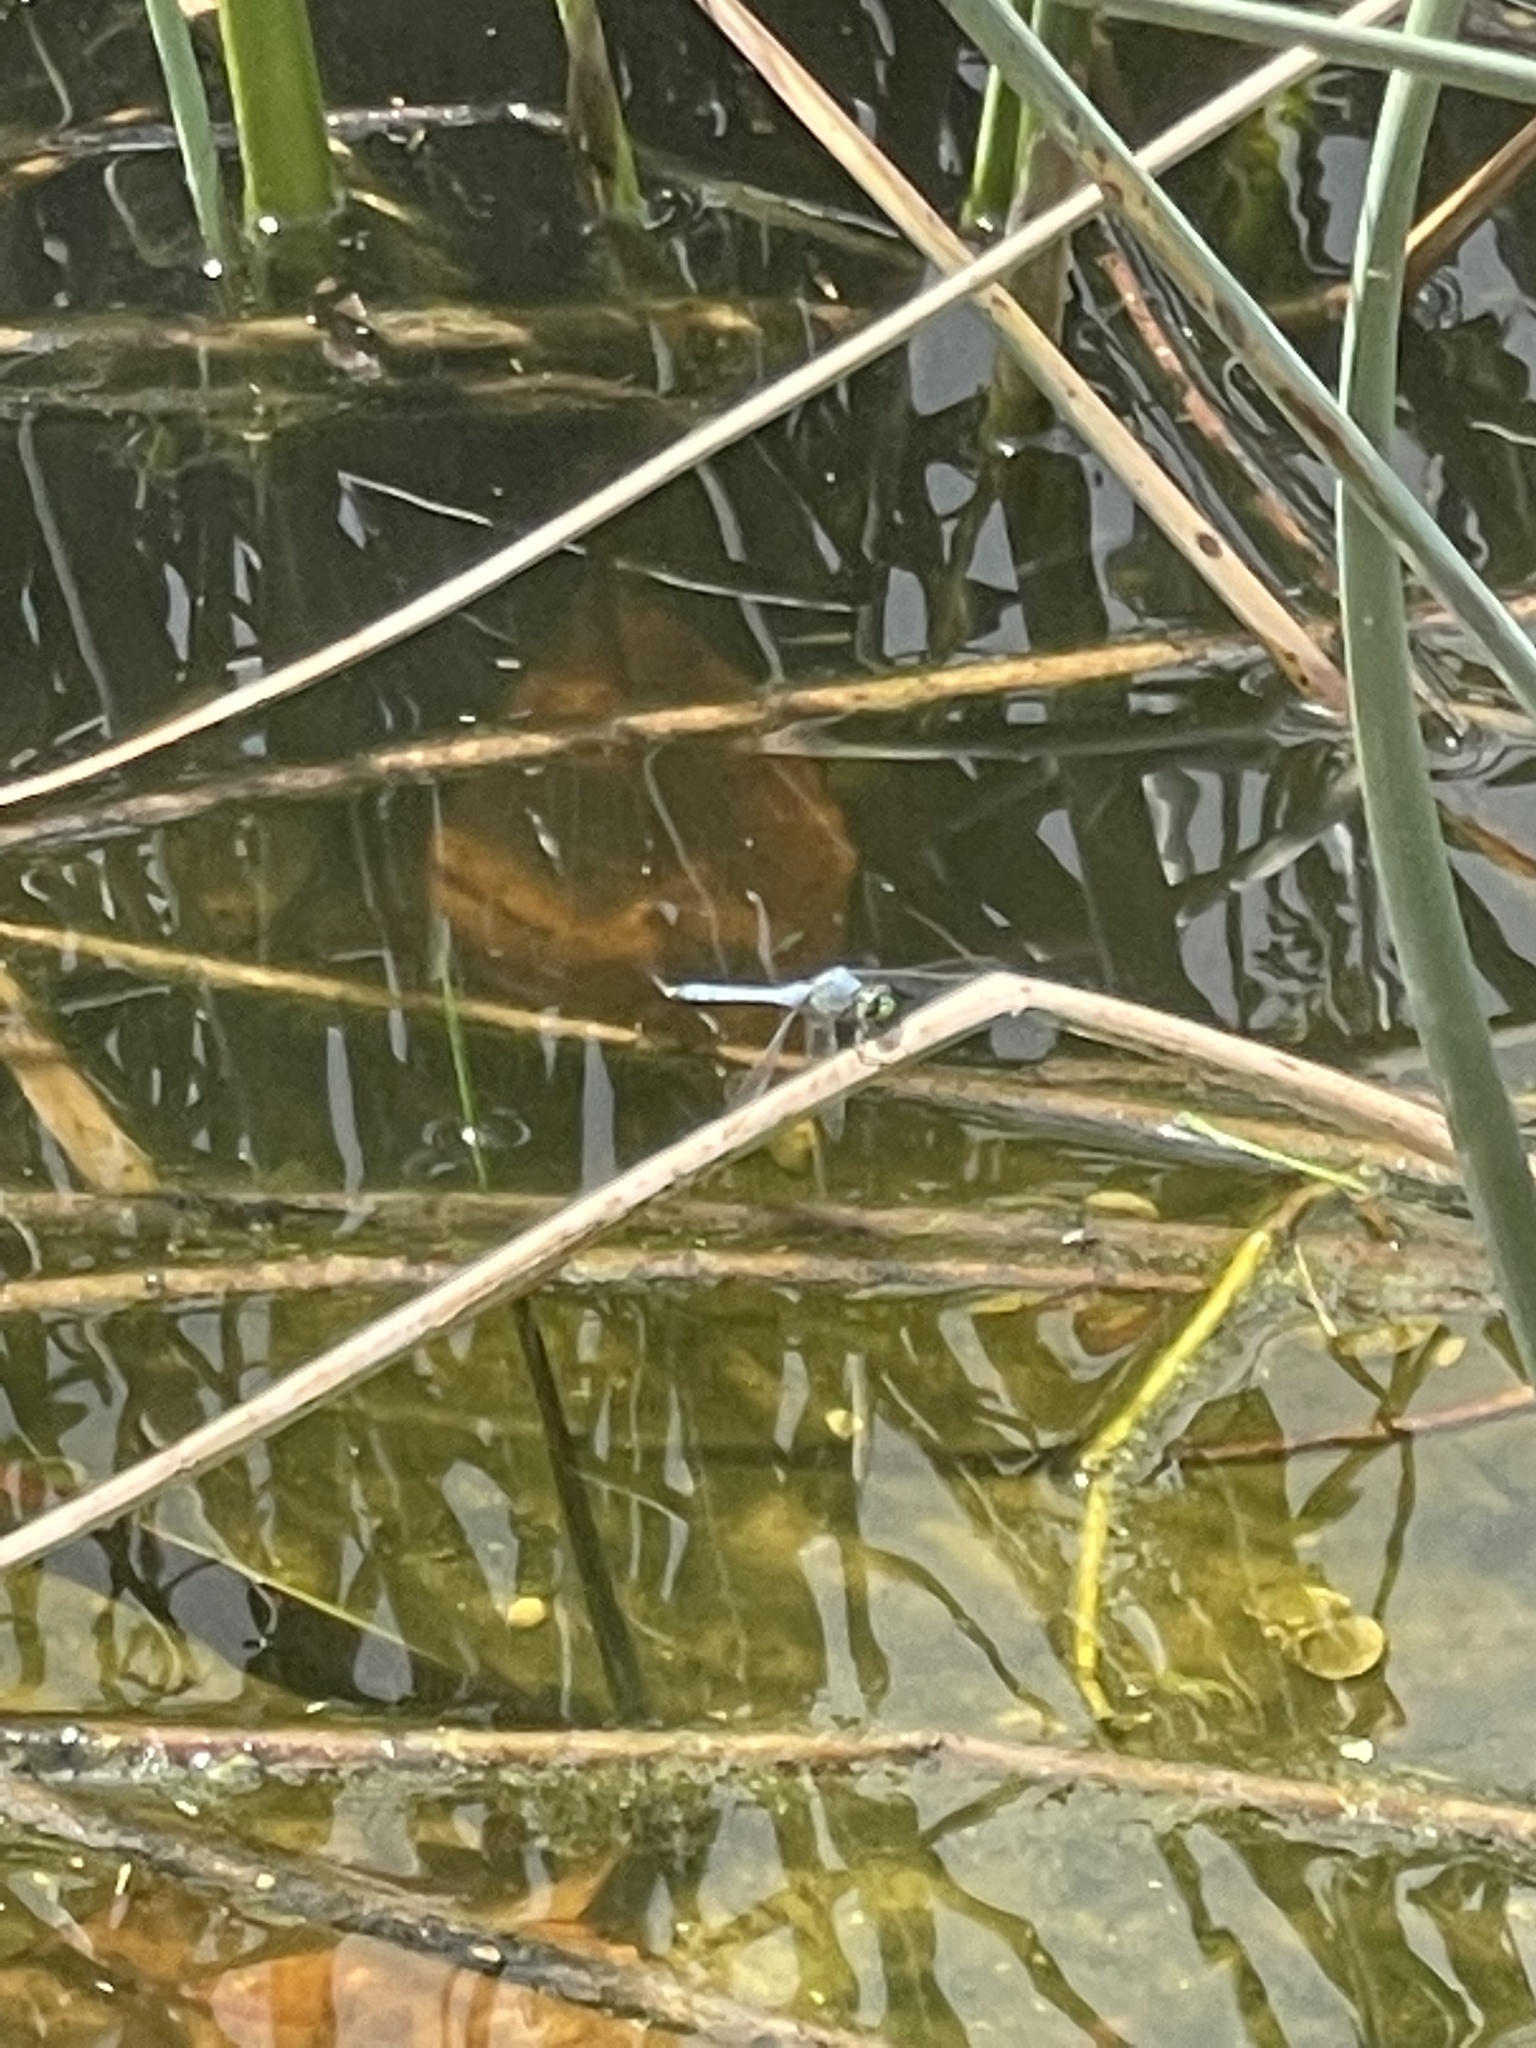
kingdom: Animalia
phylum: Arthropoda
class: Insecta
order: Odonata
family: Libellulidae
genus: Erythemis
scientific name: Erythemis simplicicollis
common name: Eastern pondhawk
